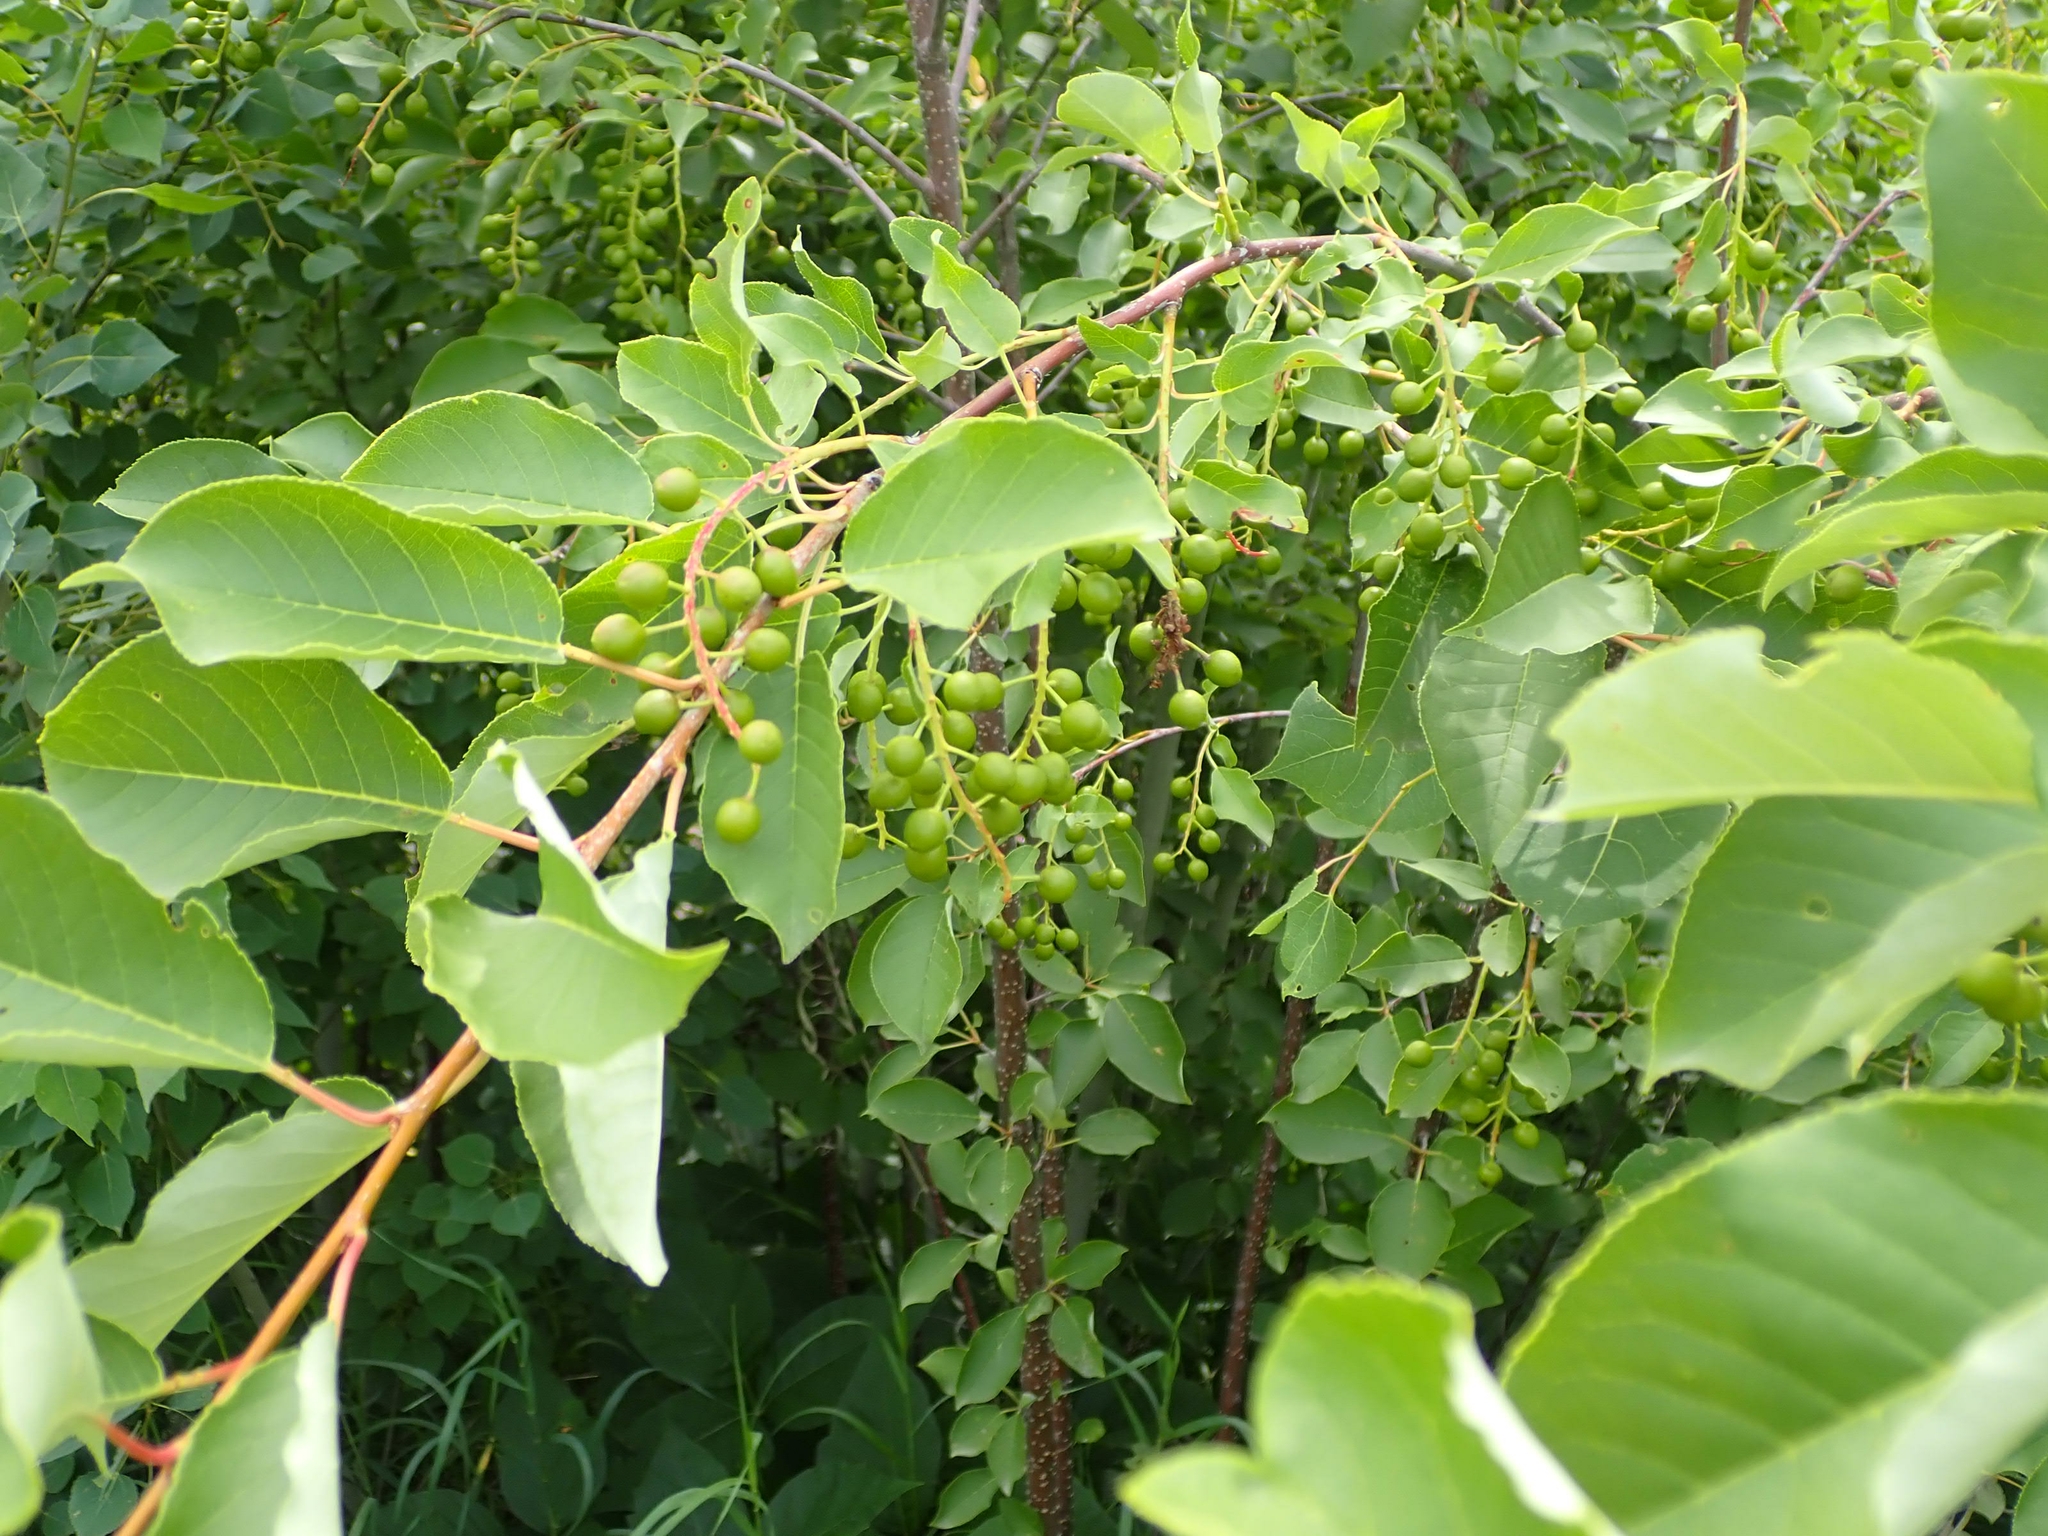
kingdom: Plantae
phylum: Tracheophyta
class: Magnoliopsida
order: Rosales
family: Rosaceae
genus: Prunus
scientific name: Prunus virginiana
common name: Chokecherry
